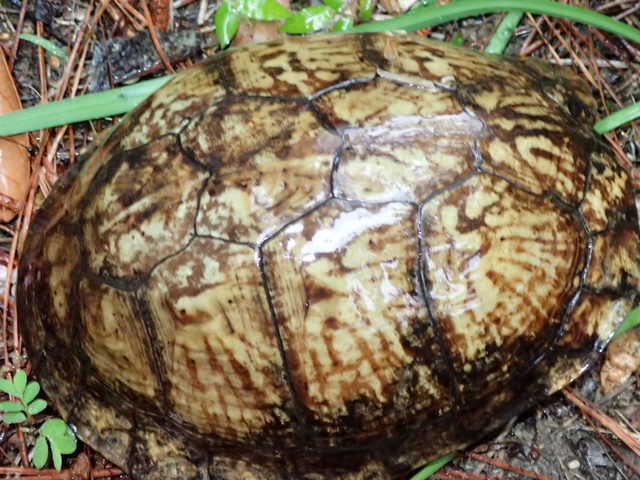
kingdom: Animalia
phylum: Chordata
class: Testudines
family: Emydidae
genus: Terrapene
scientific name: Terrapene carolina
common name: Common box turtle
